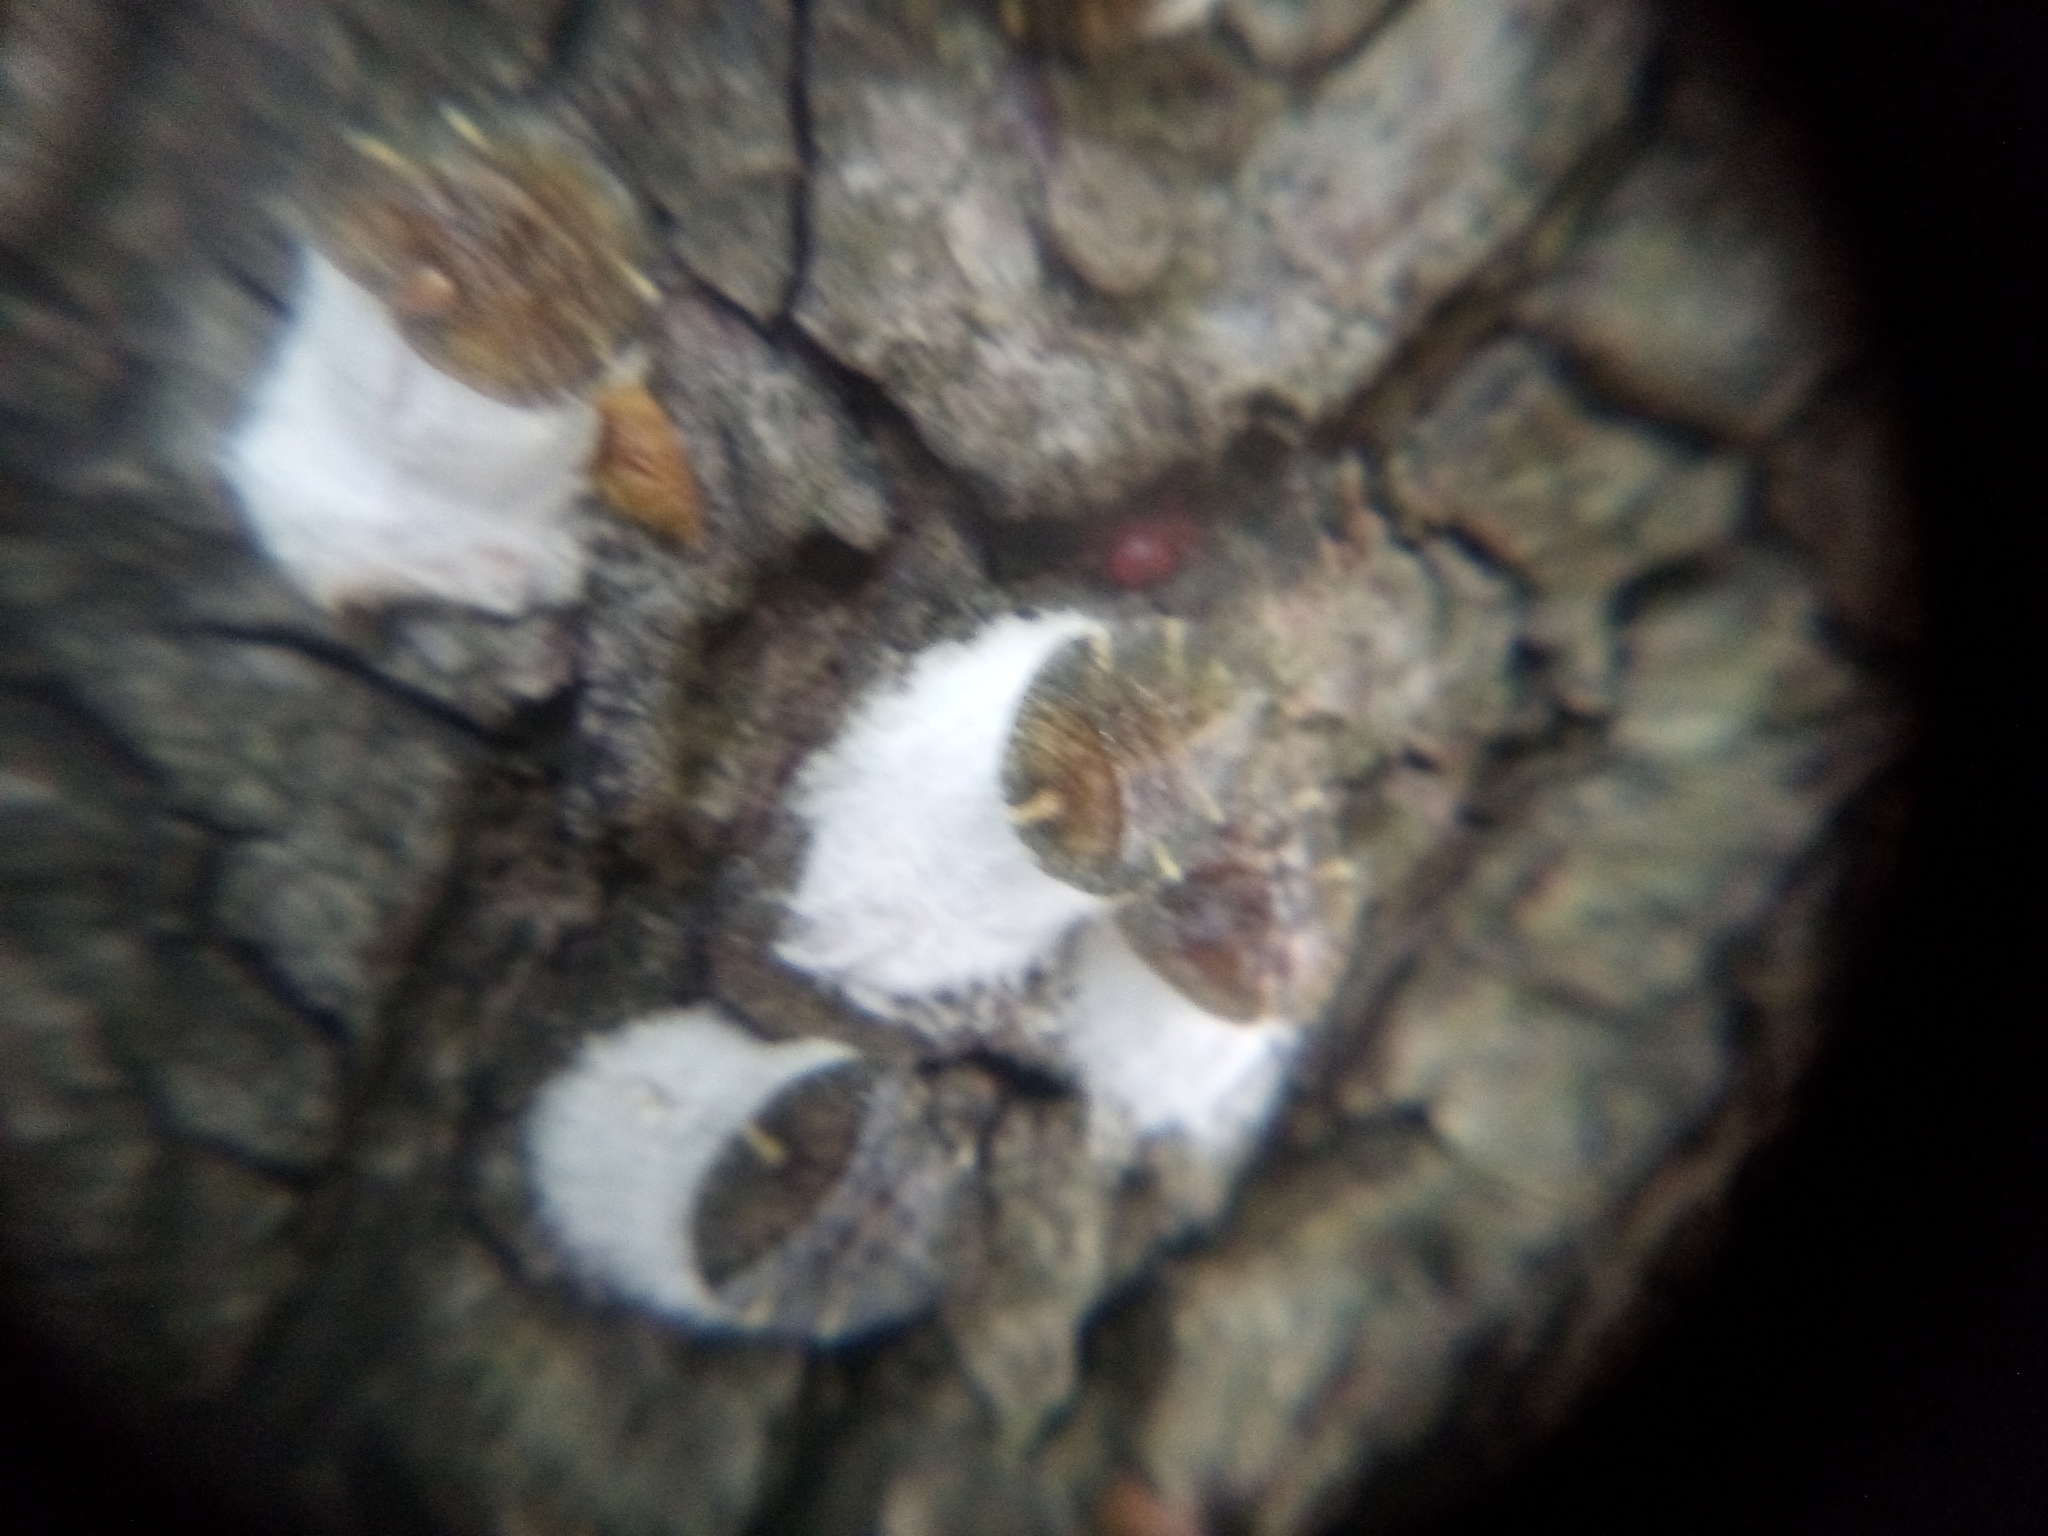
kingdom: Animalia
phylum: Arthropoda
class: Insecta
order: Hemiptera
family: Coccidae
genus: Pulvinaria
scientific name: Pulvinaria regalis
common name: Horse chestnut scale
